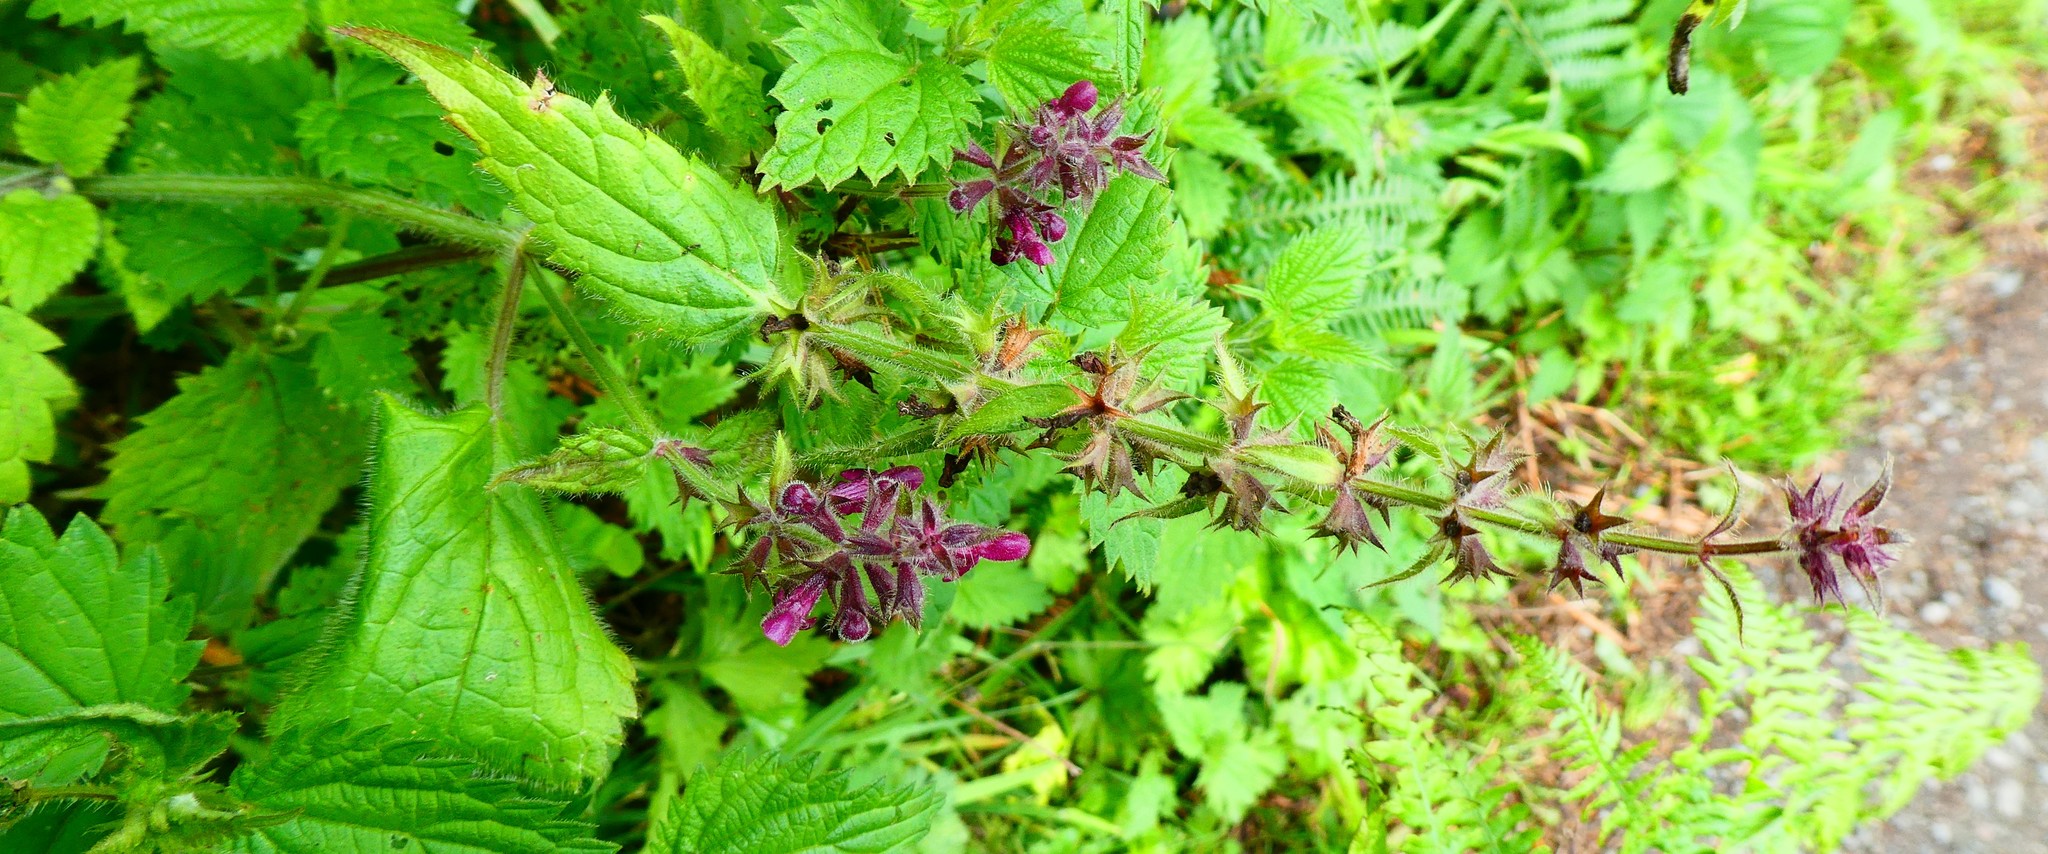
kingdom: Plantae
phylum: Tracheophyta
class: Magnoliopsida
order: Lamiales
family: Lamiaceae
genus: Stachys
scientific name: Stachys sylvatica
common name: Hedge woundwort
